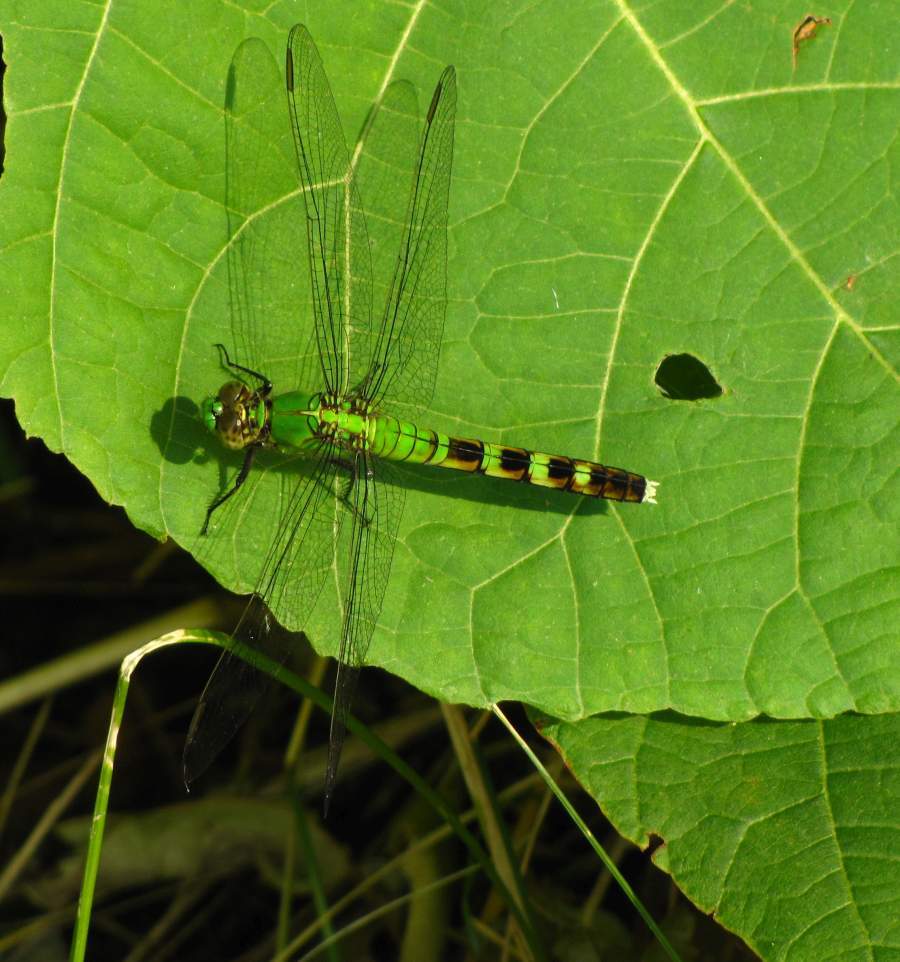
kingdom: Animalia
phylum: Arthropoda
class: Insecta
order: Odonata
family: Libellulidae
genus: Erythemis
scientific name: Erythemis simplicicollis
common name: Eastern pondhawk
